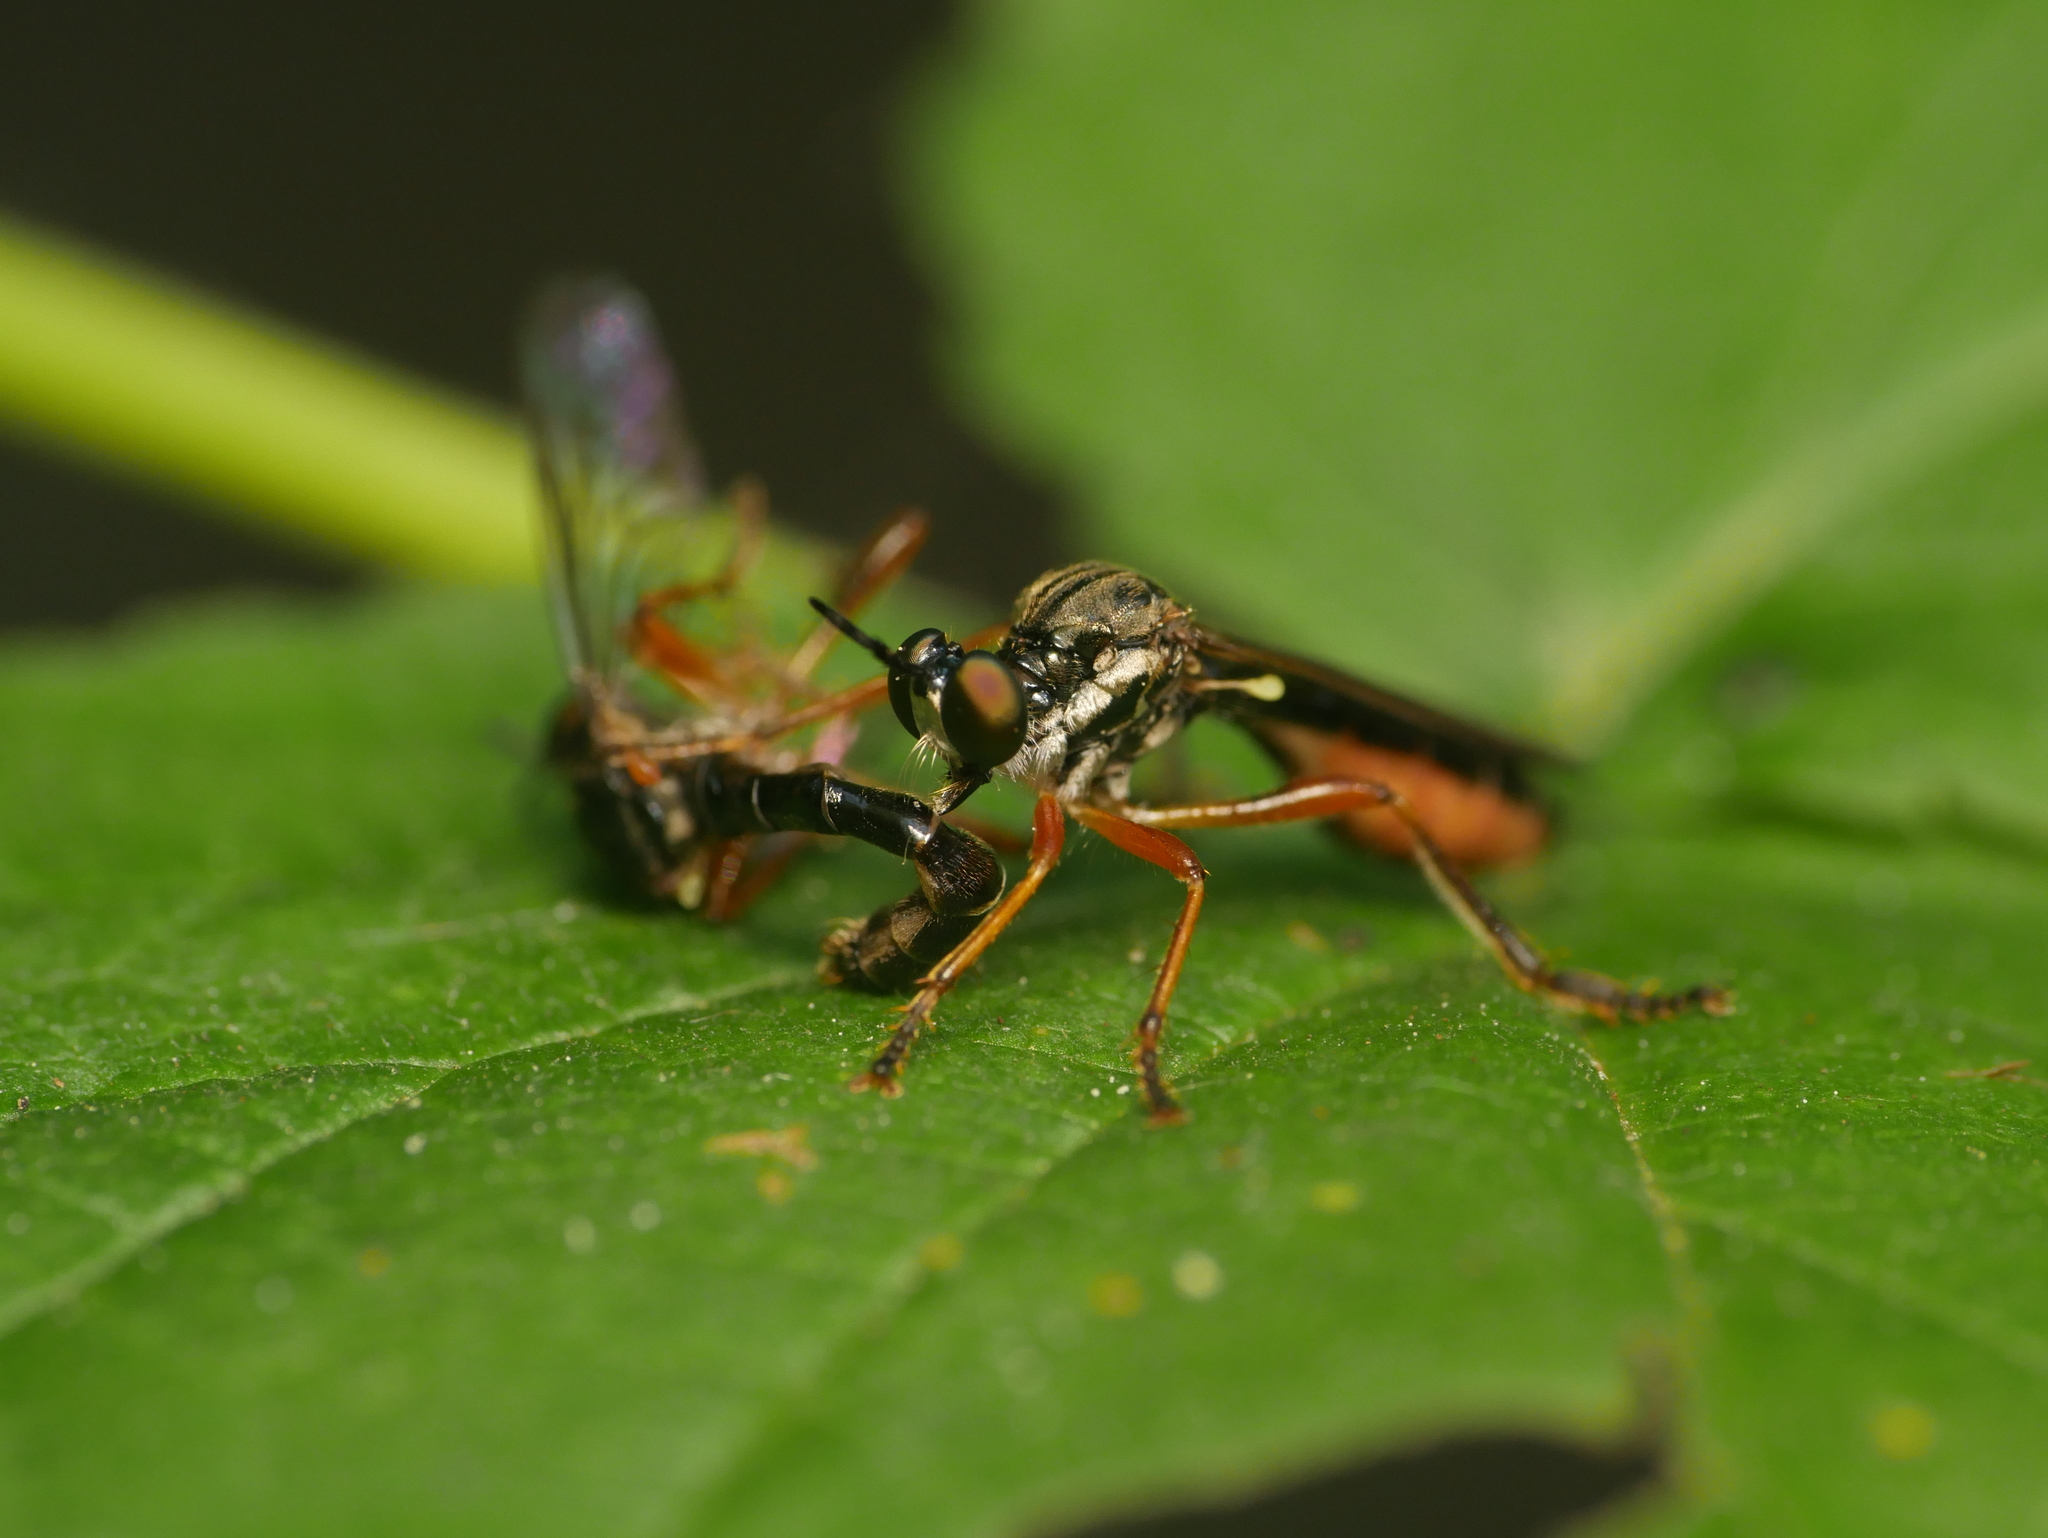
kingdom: Animalia
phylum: Arthropoda
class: Insecta
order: Diptera
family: Asilidae
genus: Dioctria
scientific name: Dioctria hyalipennis
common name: Stripe-legged robberfly
